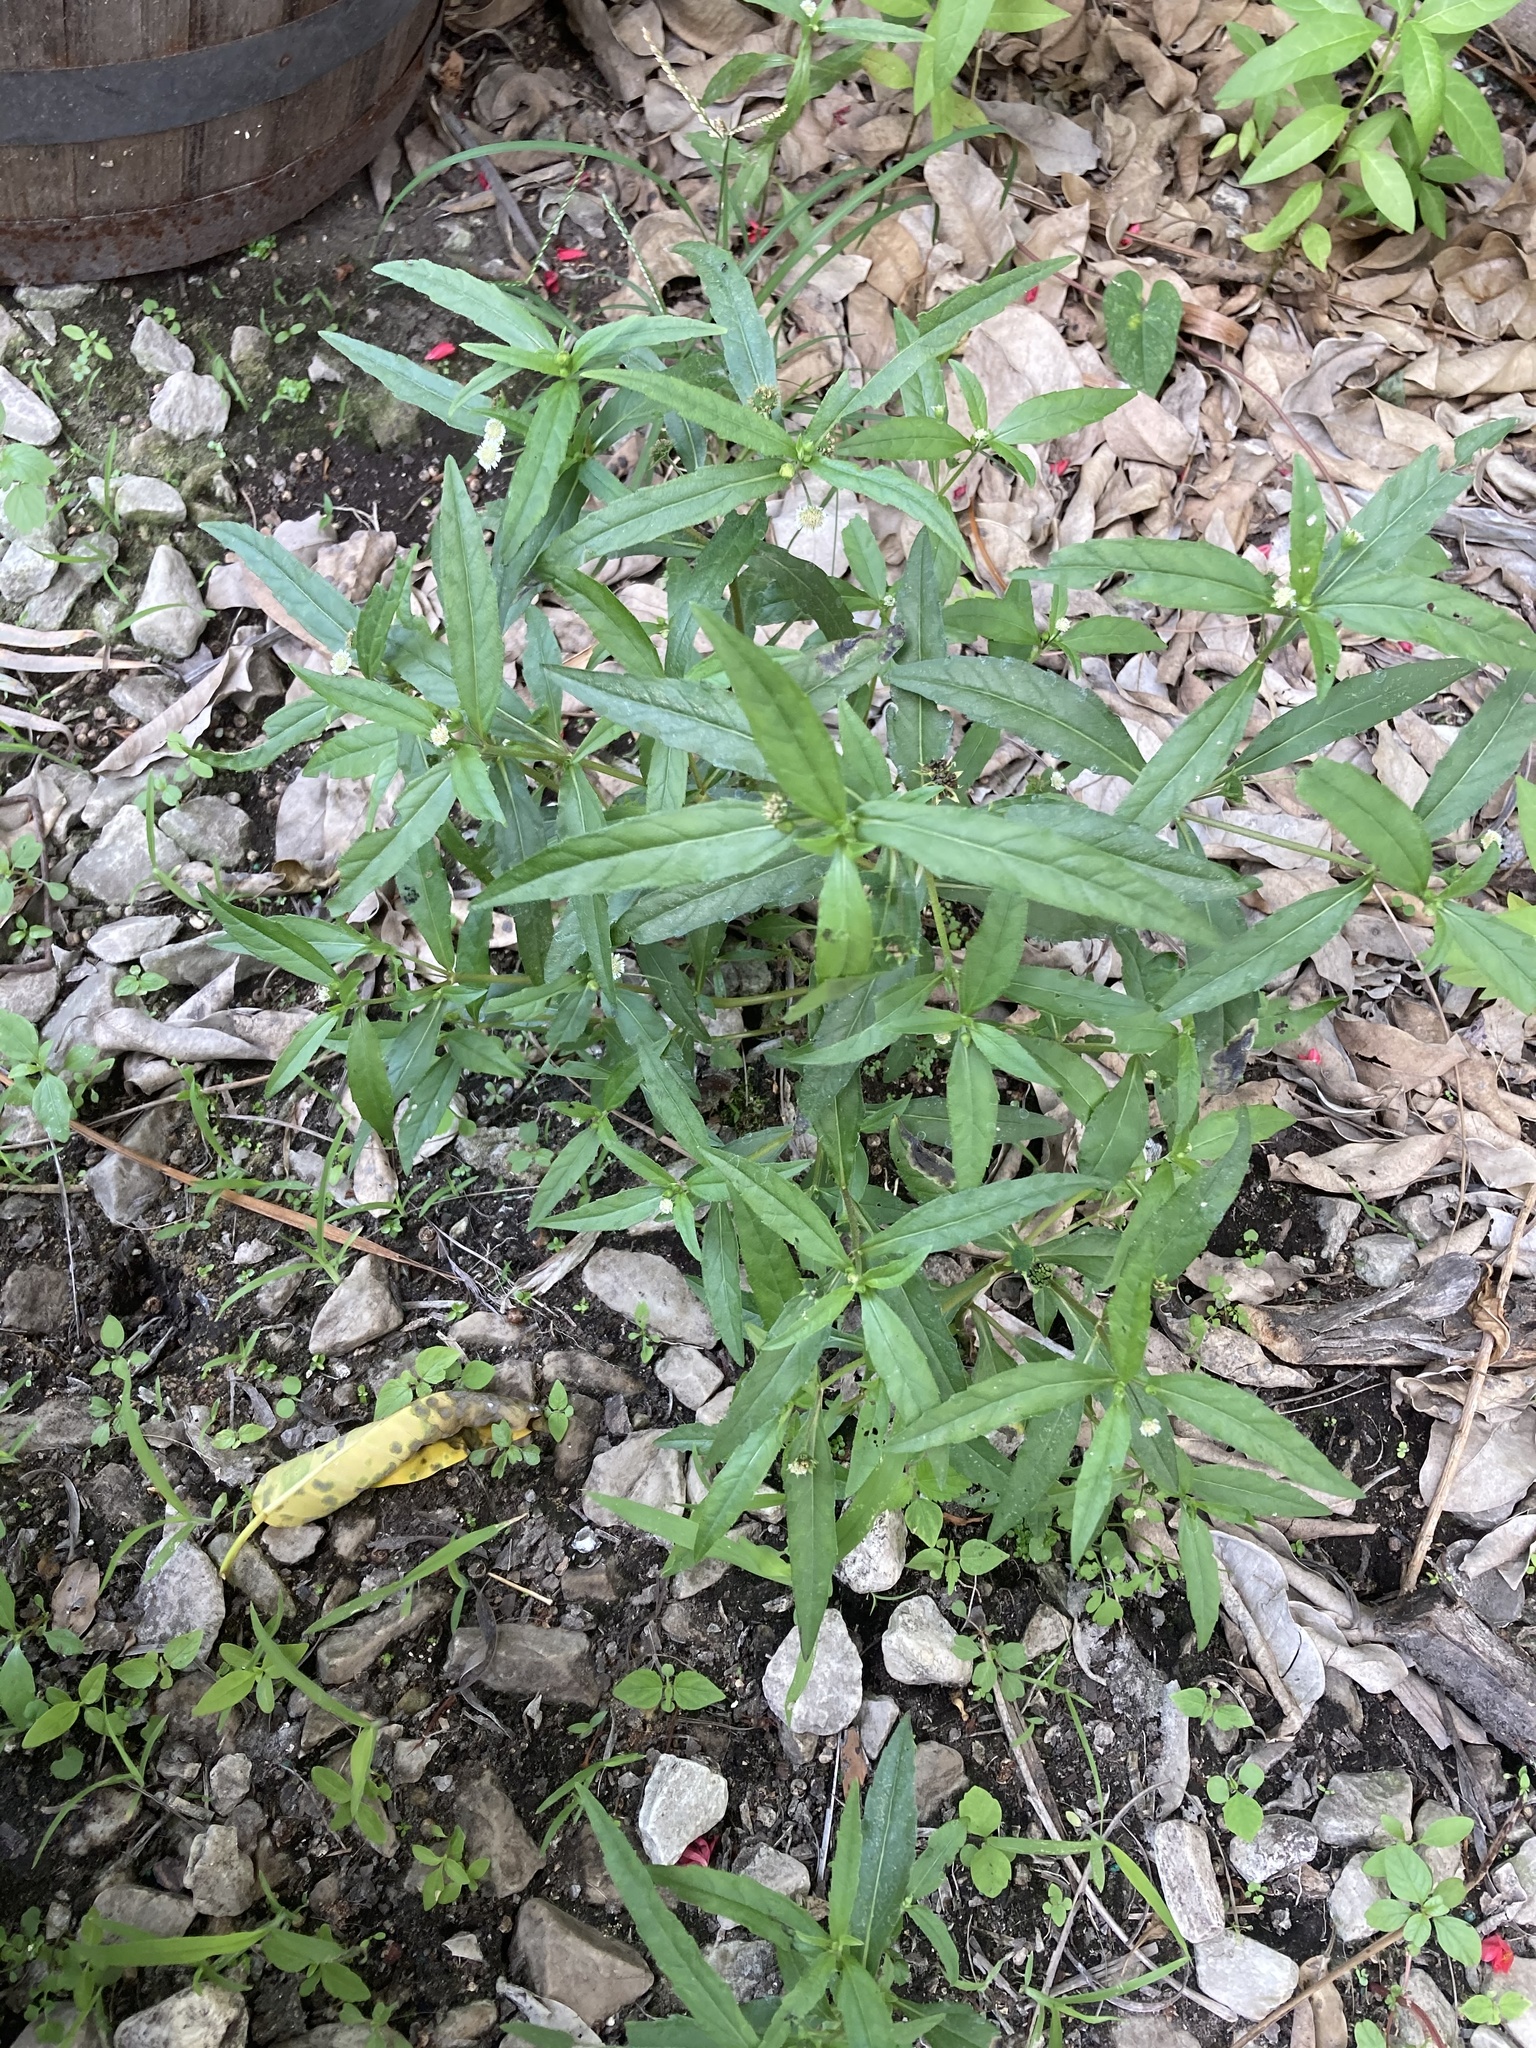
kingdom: Plantae
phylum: Tracheophyta
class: Magnoliopsida
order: Asterales
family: Asteraceae
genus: Eclipta
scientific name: Eclipta prostrata
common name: False daisy
